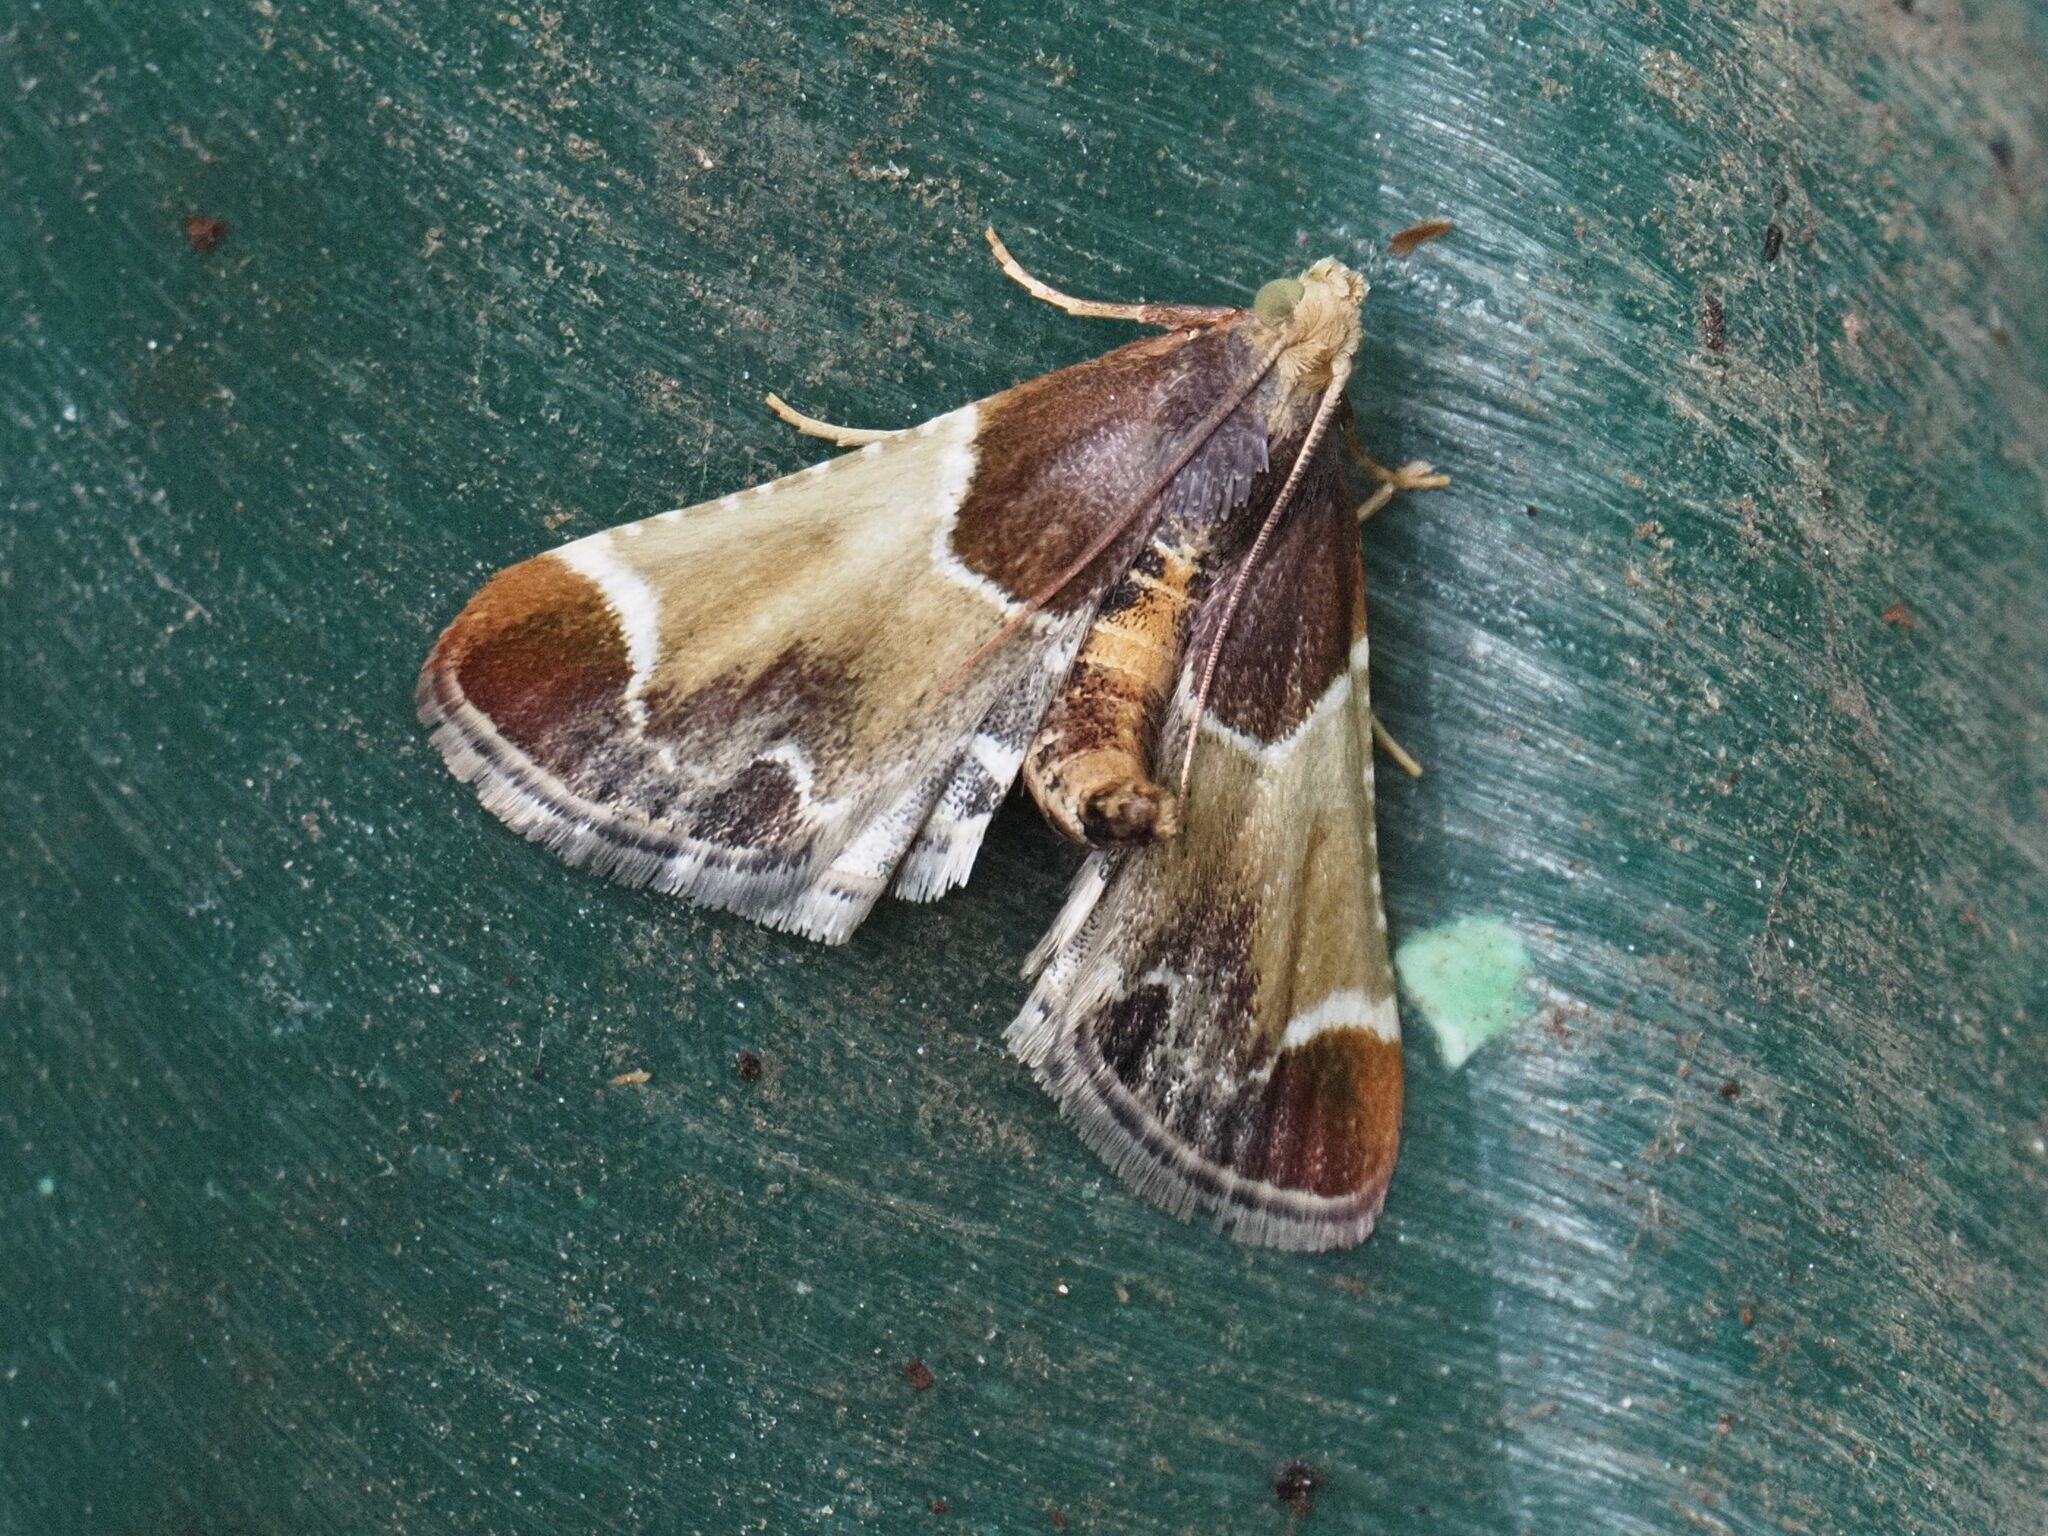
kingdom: Animalia
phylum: Arthropoda
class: Insecta
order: Lepidoptera
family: Pyralidae
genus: Pyralis
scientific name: Pyralis farinalis
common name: Meal moth
